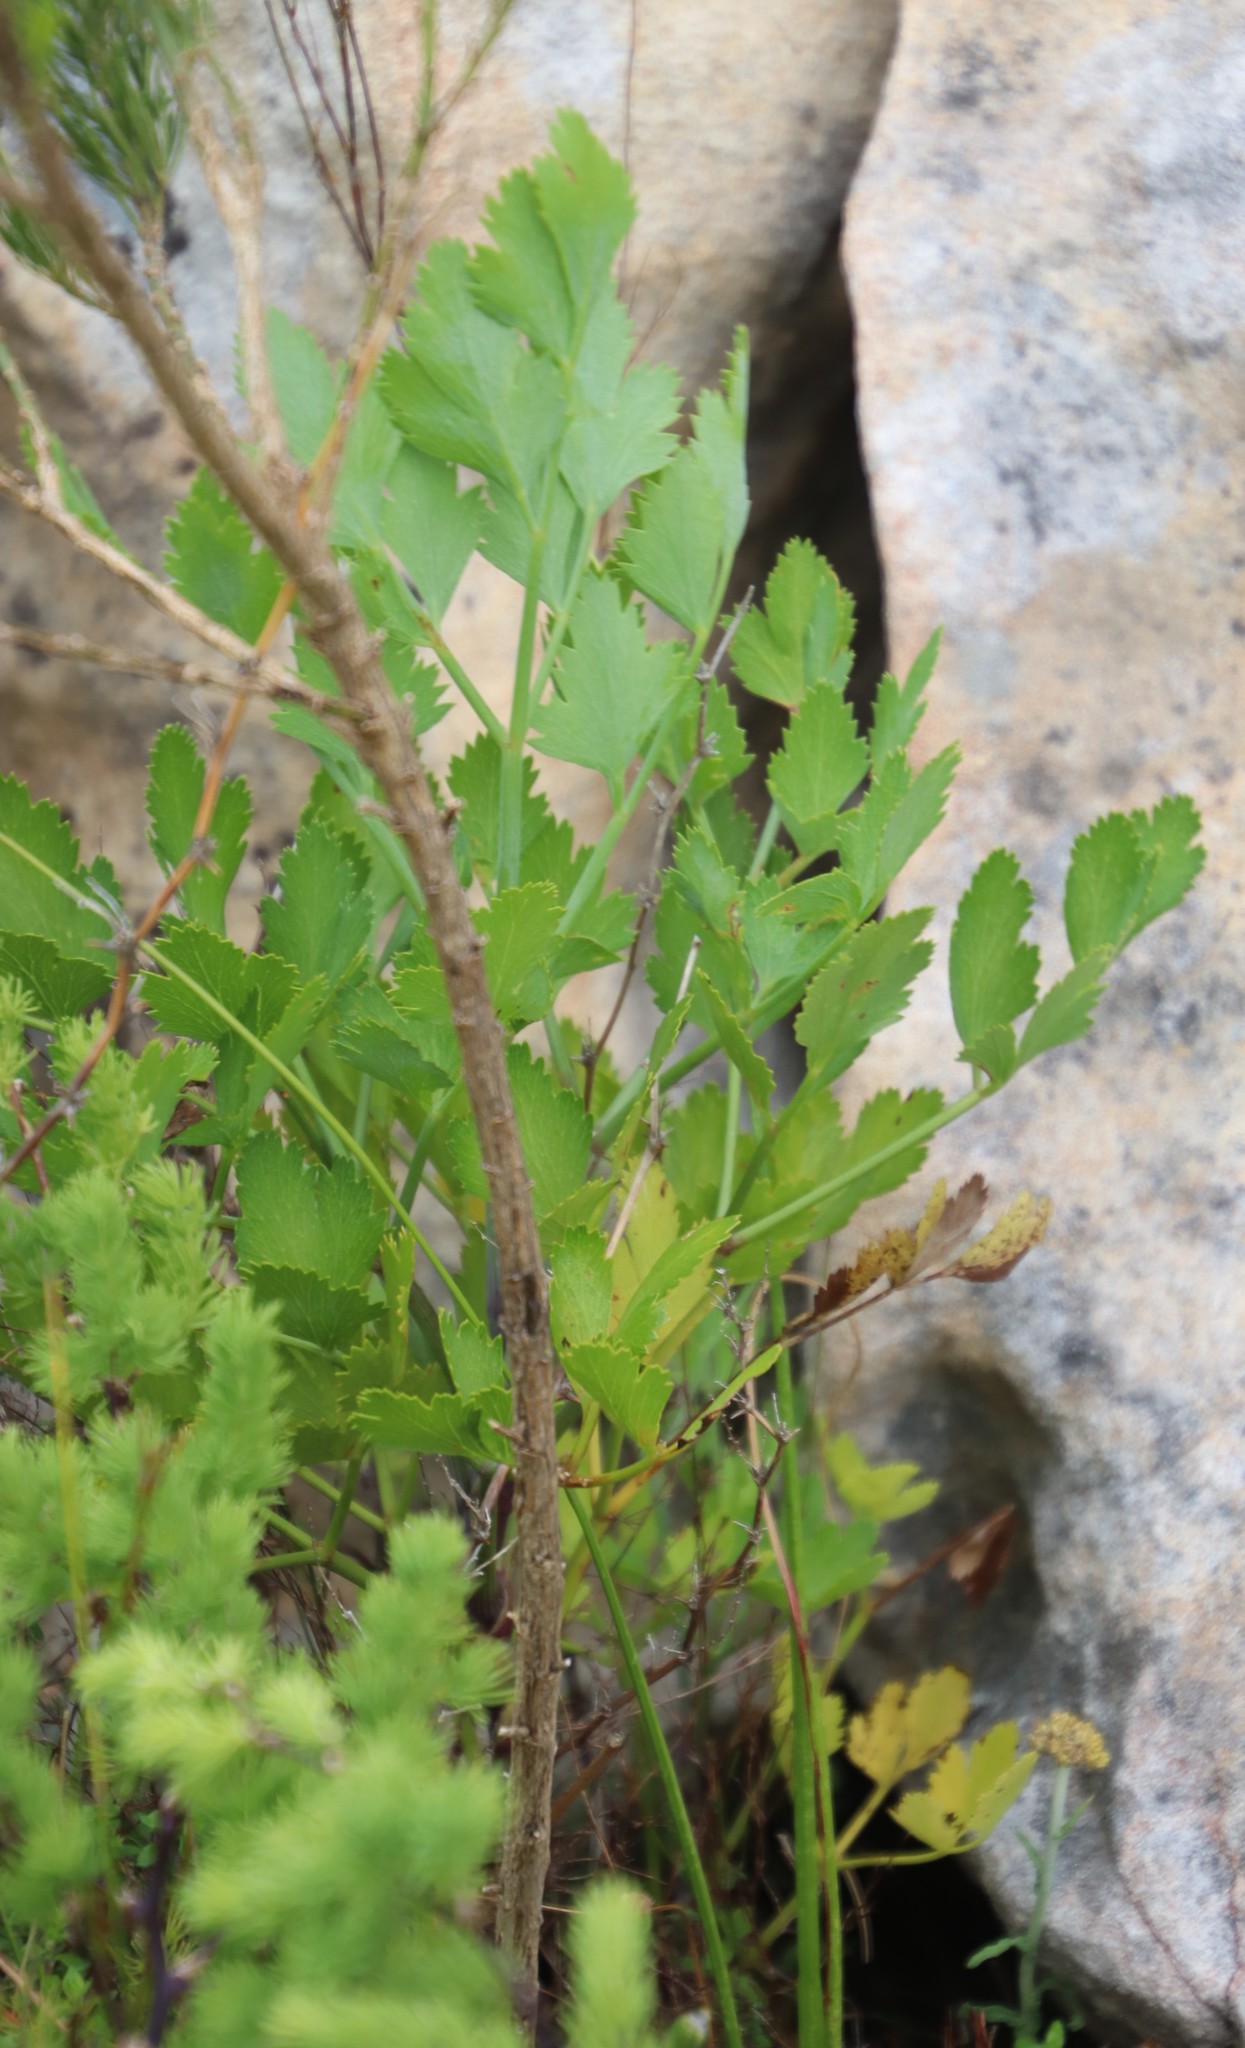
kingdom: Plantae
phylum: Tracheophyta
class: Magnoliopsida
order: Apiales
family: Apiaceae
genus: Notobubon
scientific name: Notobubon galbanum
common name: Blisterbush
